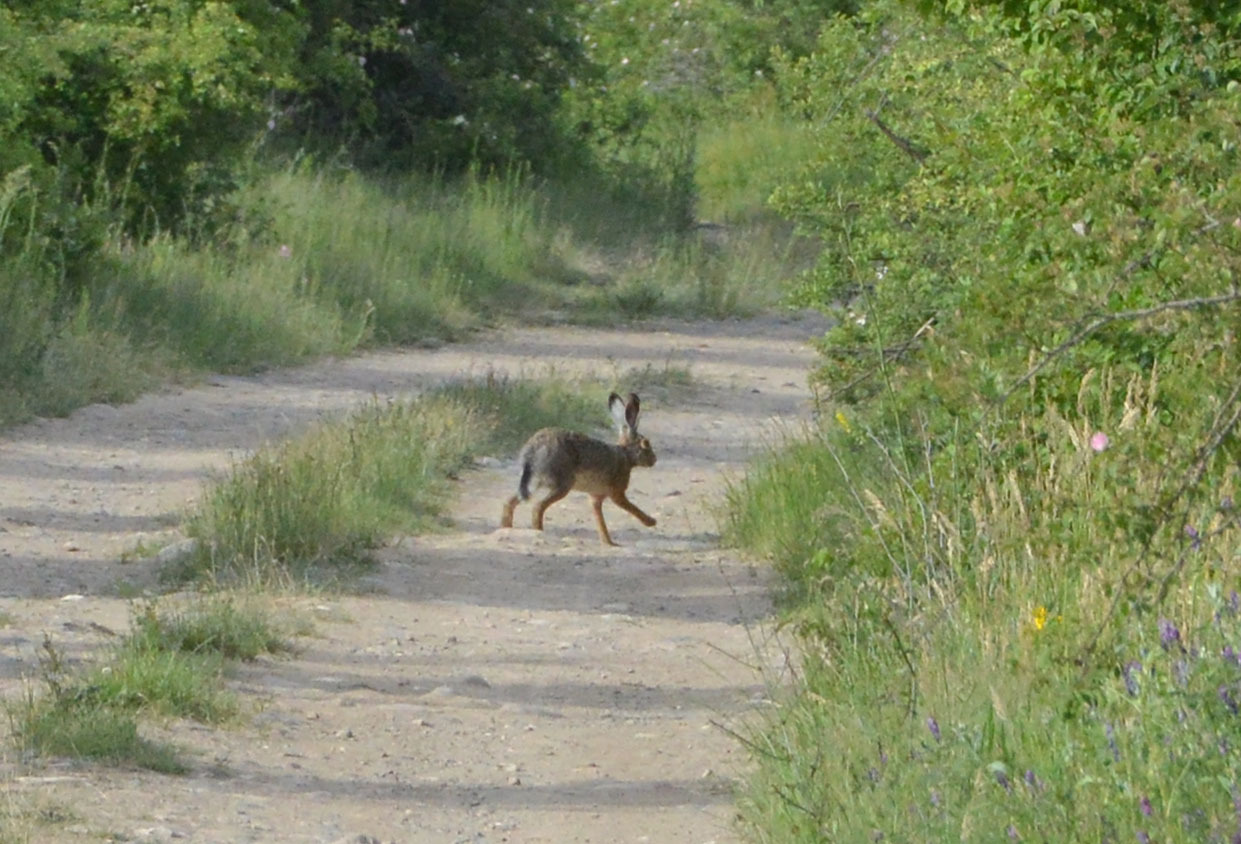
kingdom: Animalia
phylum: Chordata
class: Mammalia
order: Lagomorpha
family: Leporidae
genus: Lepus
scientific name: Lepus europaeus
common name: European hare
